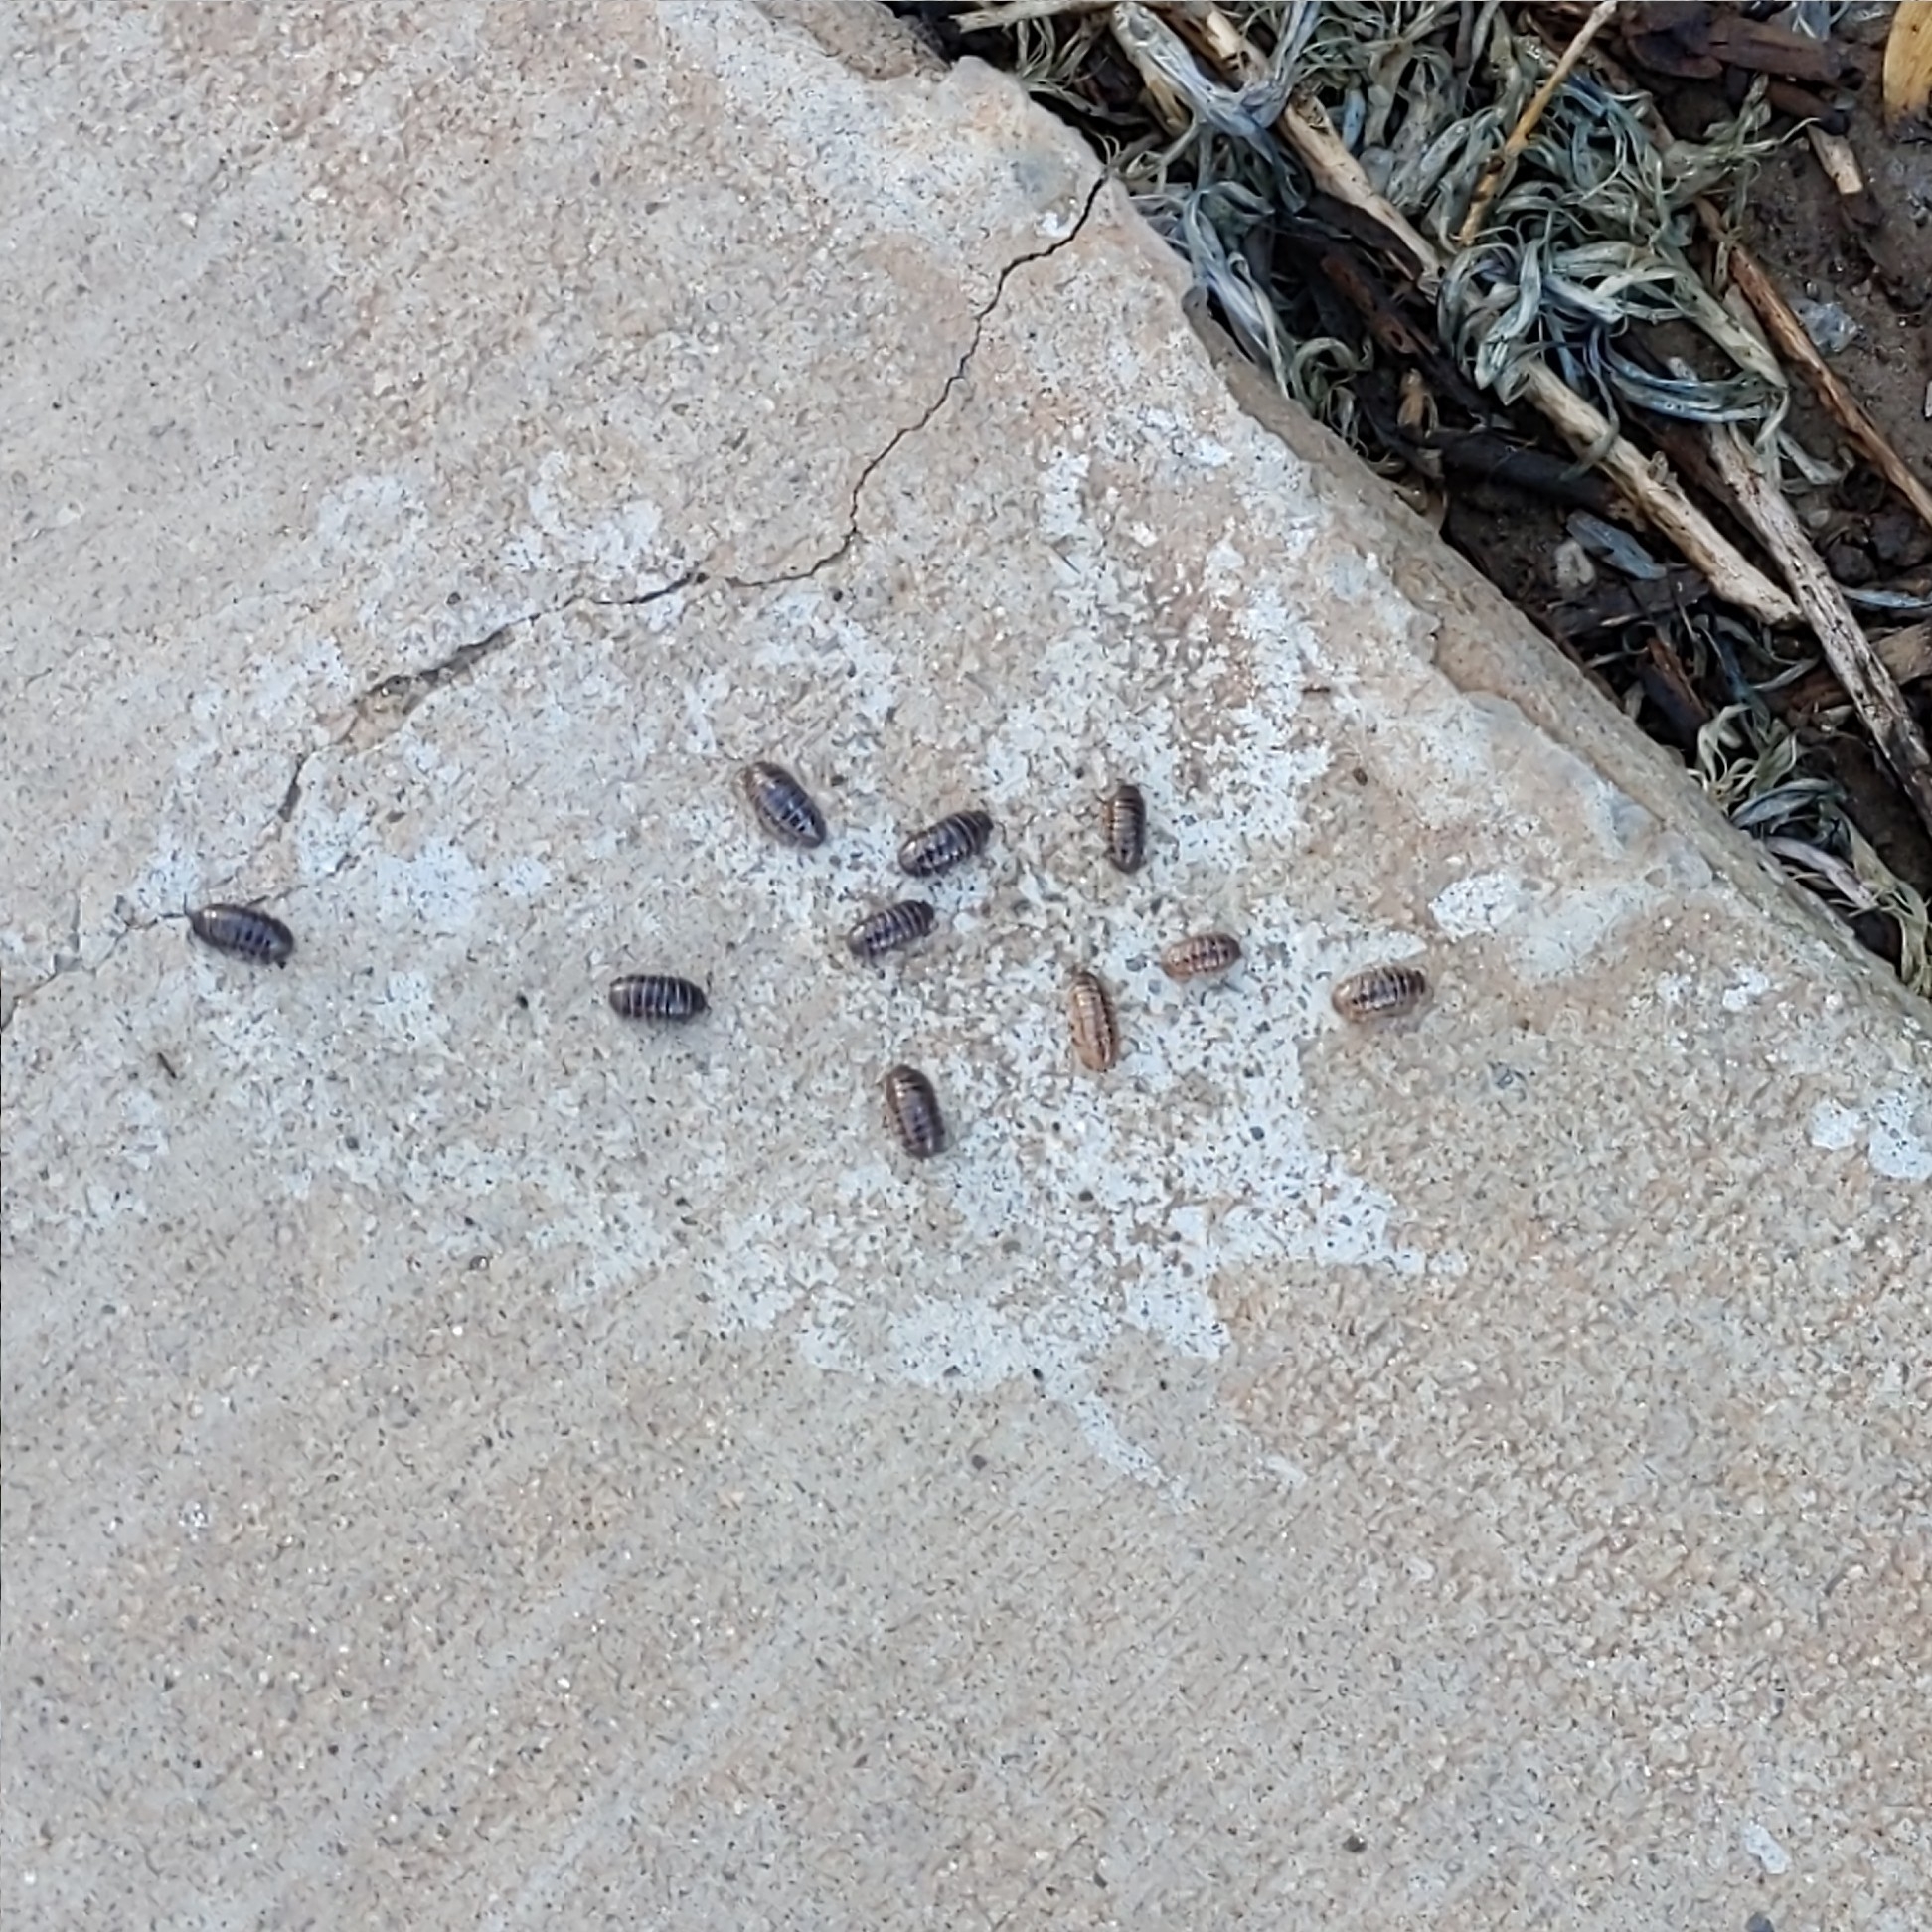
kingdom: Animalia
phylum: Arthropoda
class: Malacostraca
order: Isopoda
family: Armadillidiidae
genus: Armadillidium
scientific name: Armadillidium vulgare
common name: Common pill woodlouse
